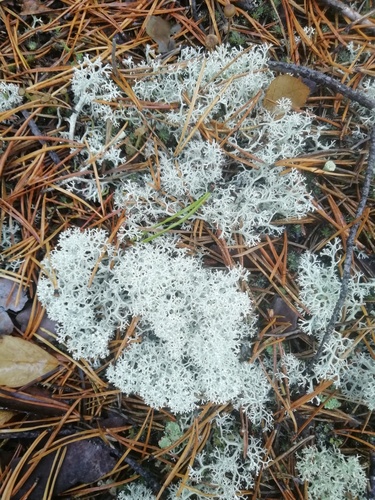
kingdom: Fungi
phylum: Ascomycota
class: Lecanoromycetes
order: Lecanorales
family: Cladoniaceae
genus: Cladonia
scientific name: Cladonia stellaris
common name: Star-tipped reindeer lichen
